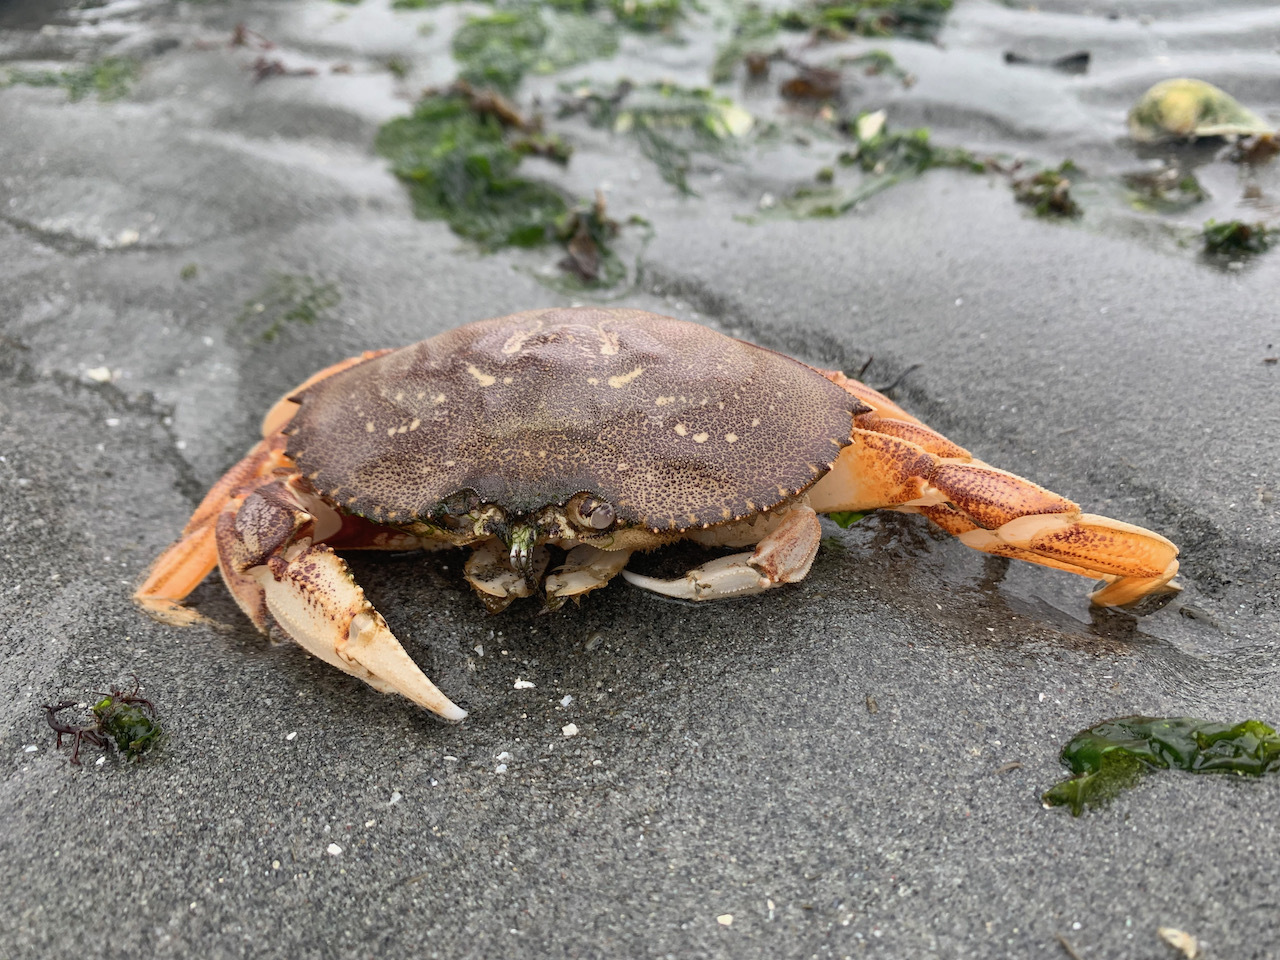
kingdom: Animalia
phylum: Arthropoda
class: Malacostraca
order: Decapoda
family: Cancridae
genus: Metacarcinus
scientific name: Metacarcinus magister
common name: Californian crab
